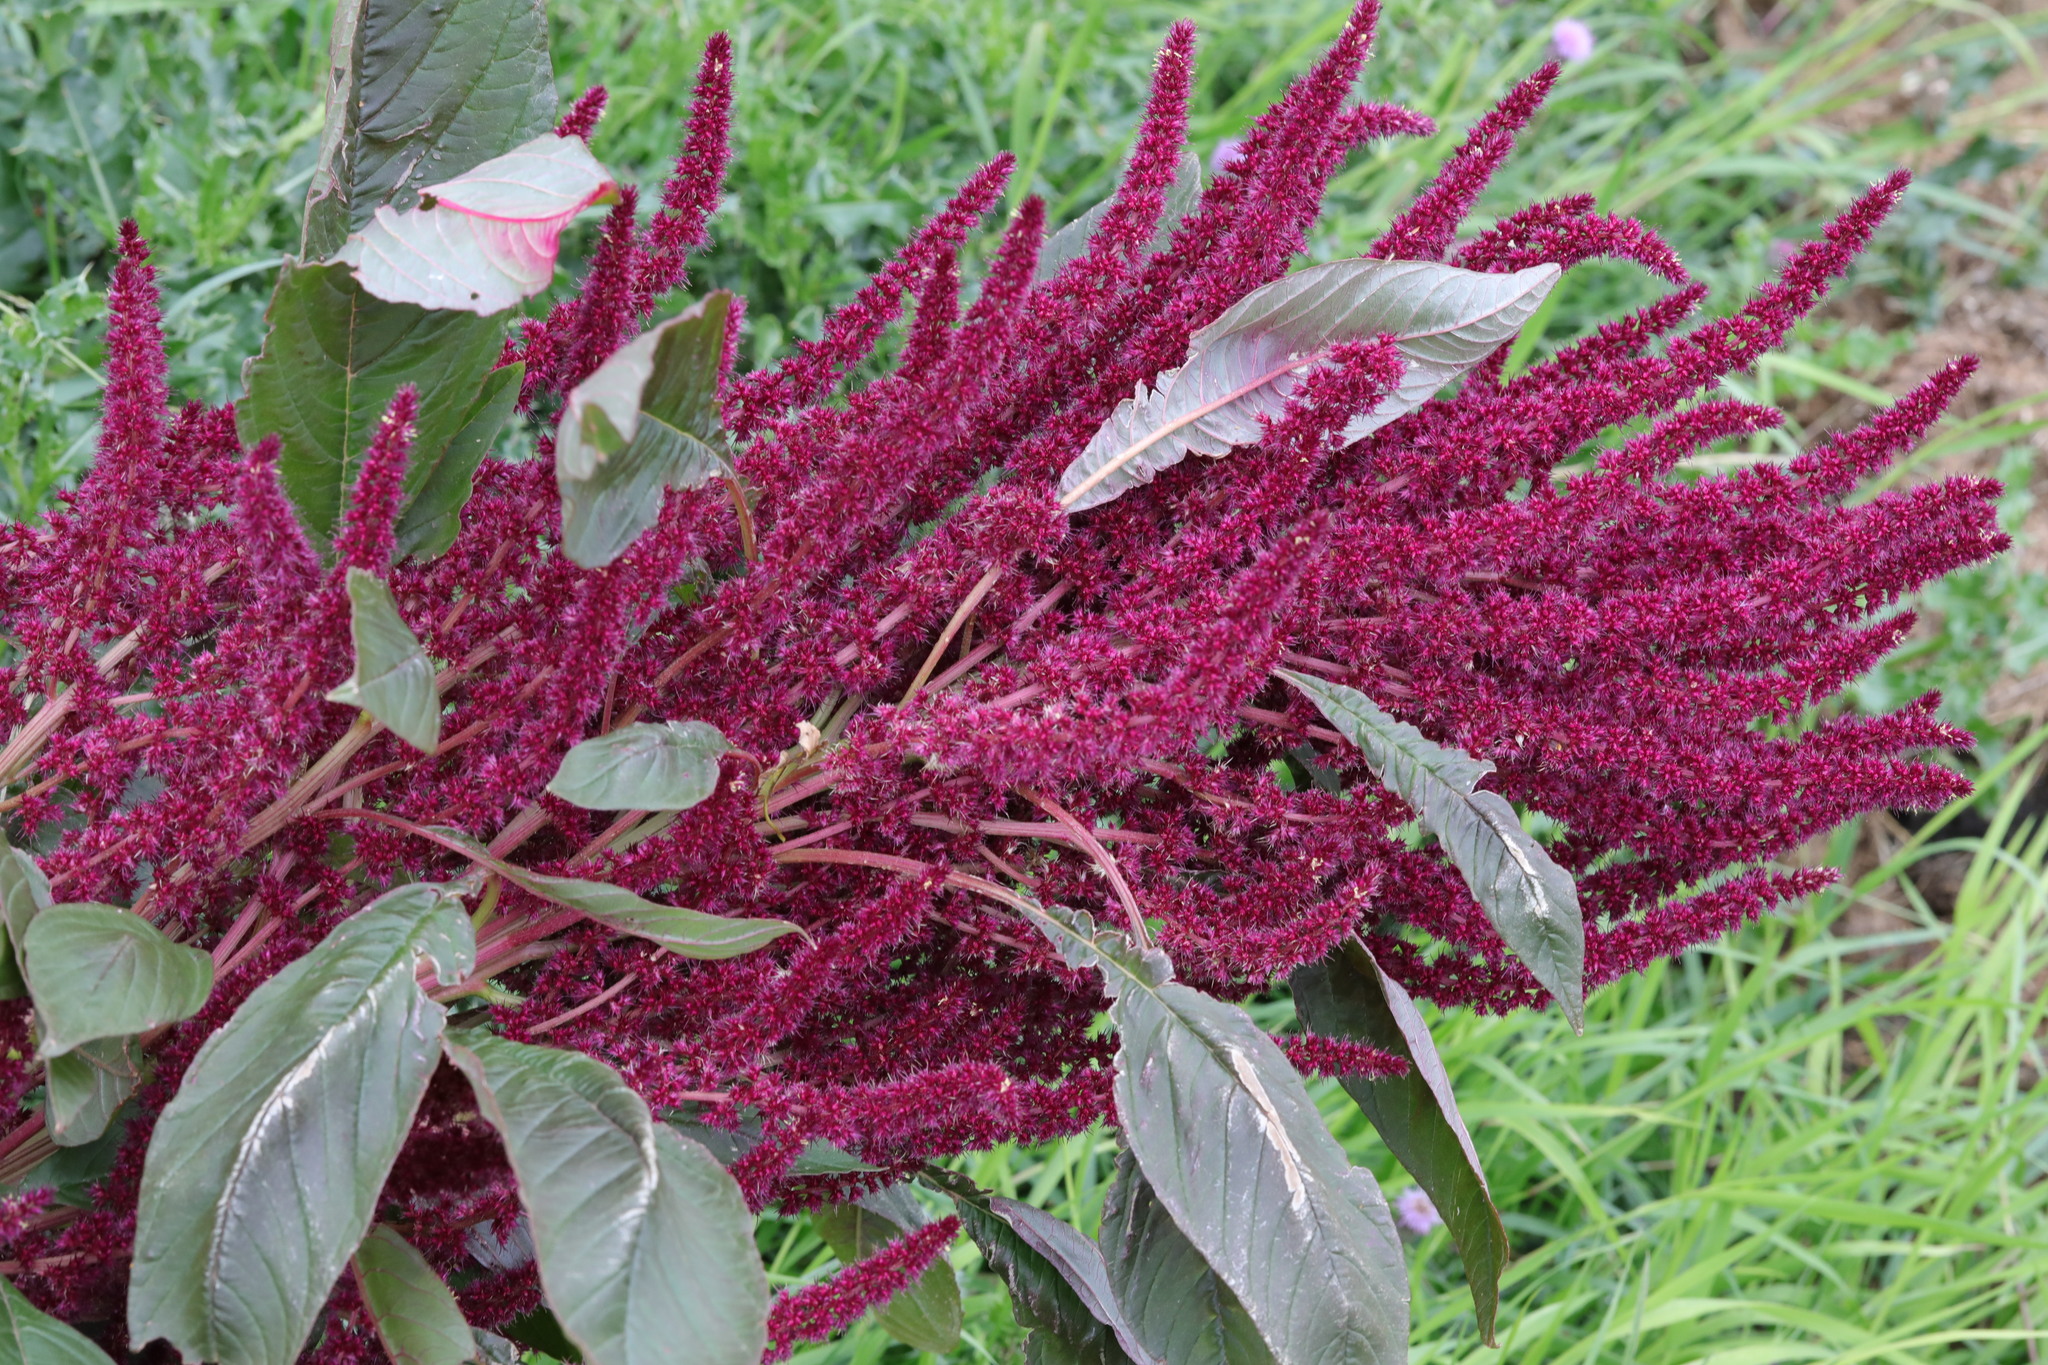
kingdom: Plantae
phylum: Tracheophyta
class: Magnoliopsida
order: Caryophyllales
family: Amaranthaceae
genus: Amaranthus
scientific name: Amaranthus cruentus
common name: Purple amaranth
